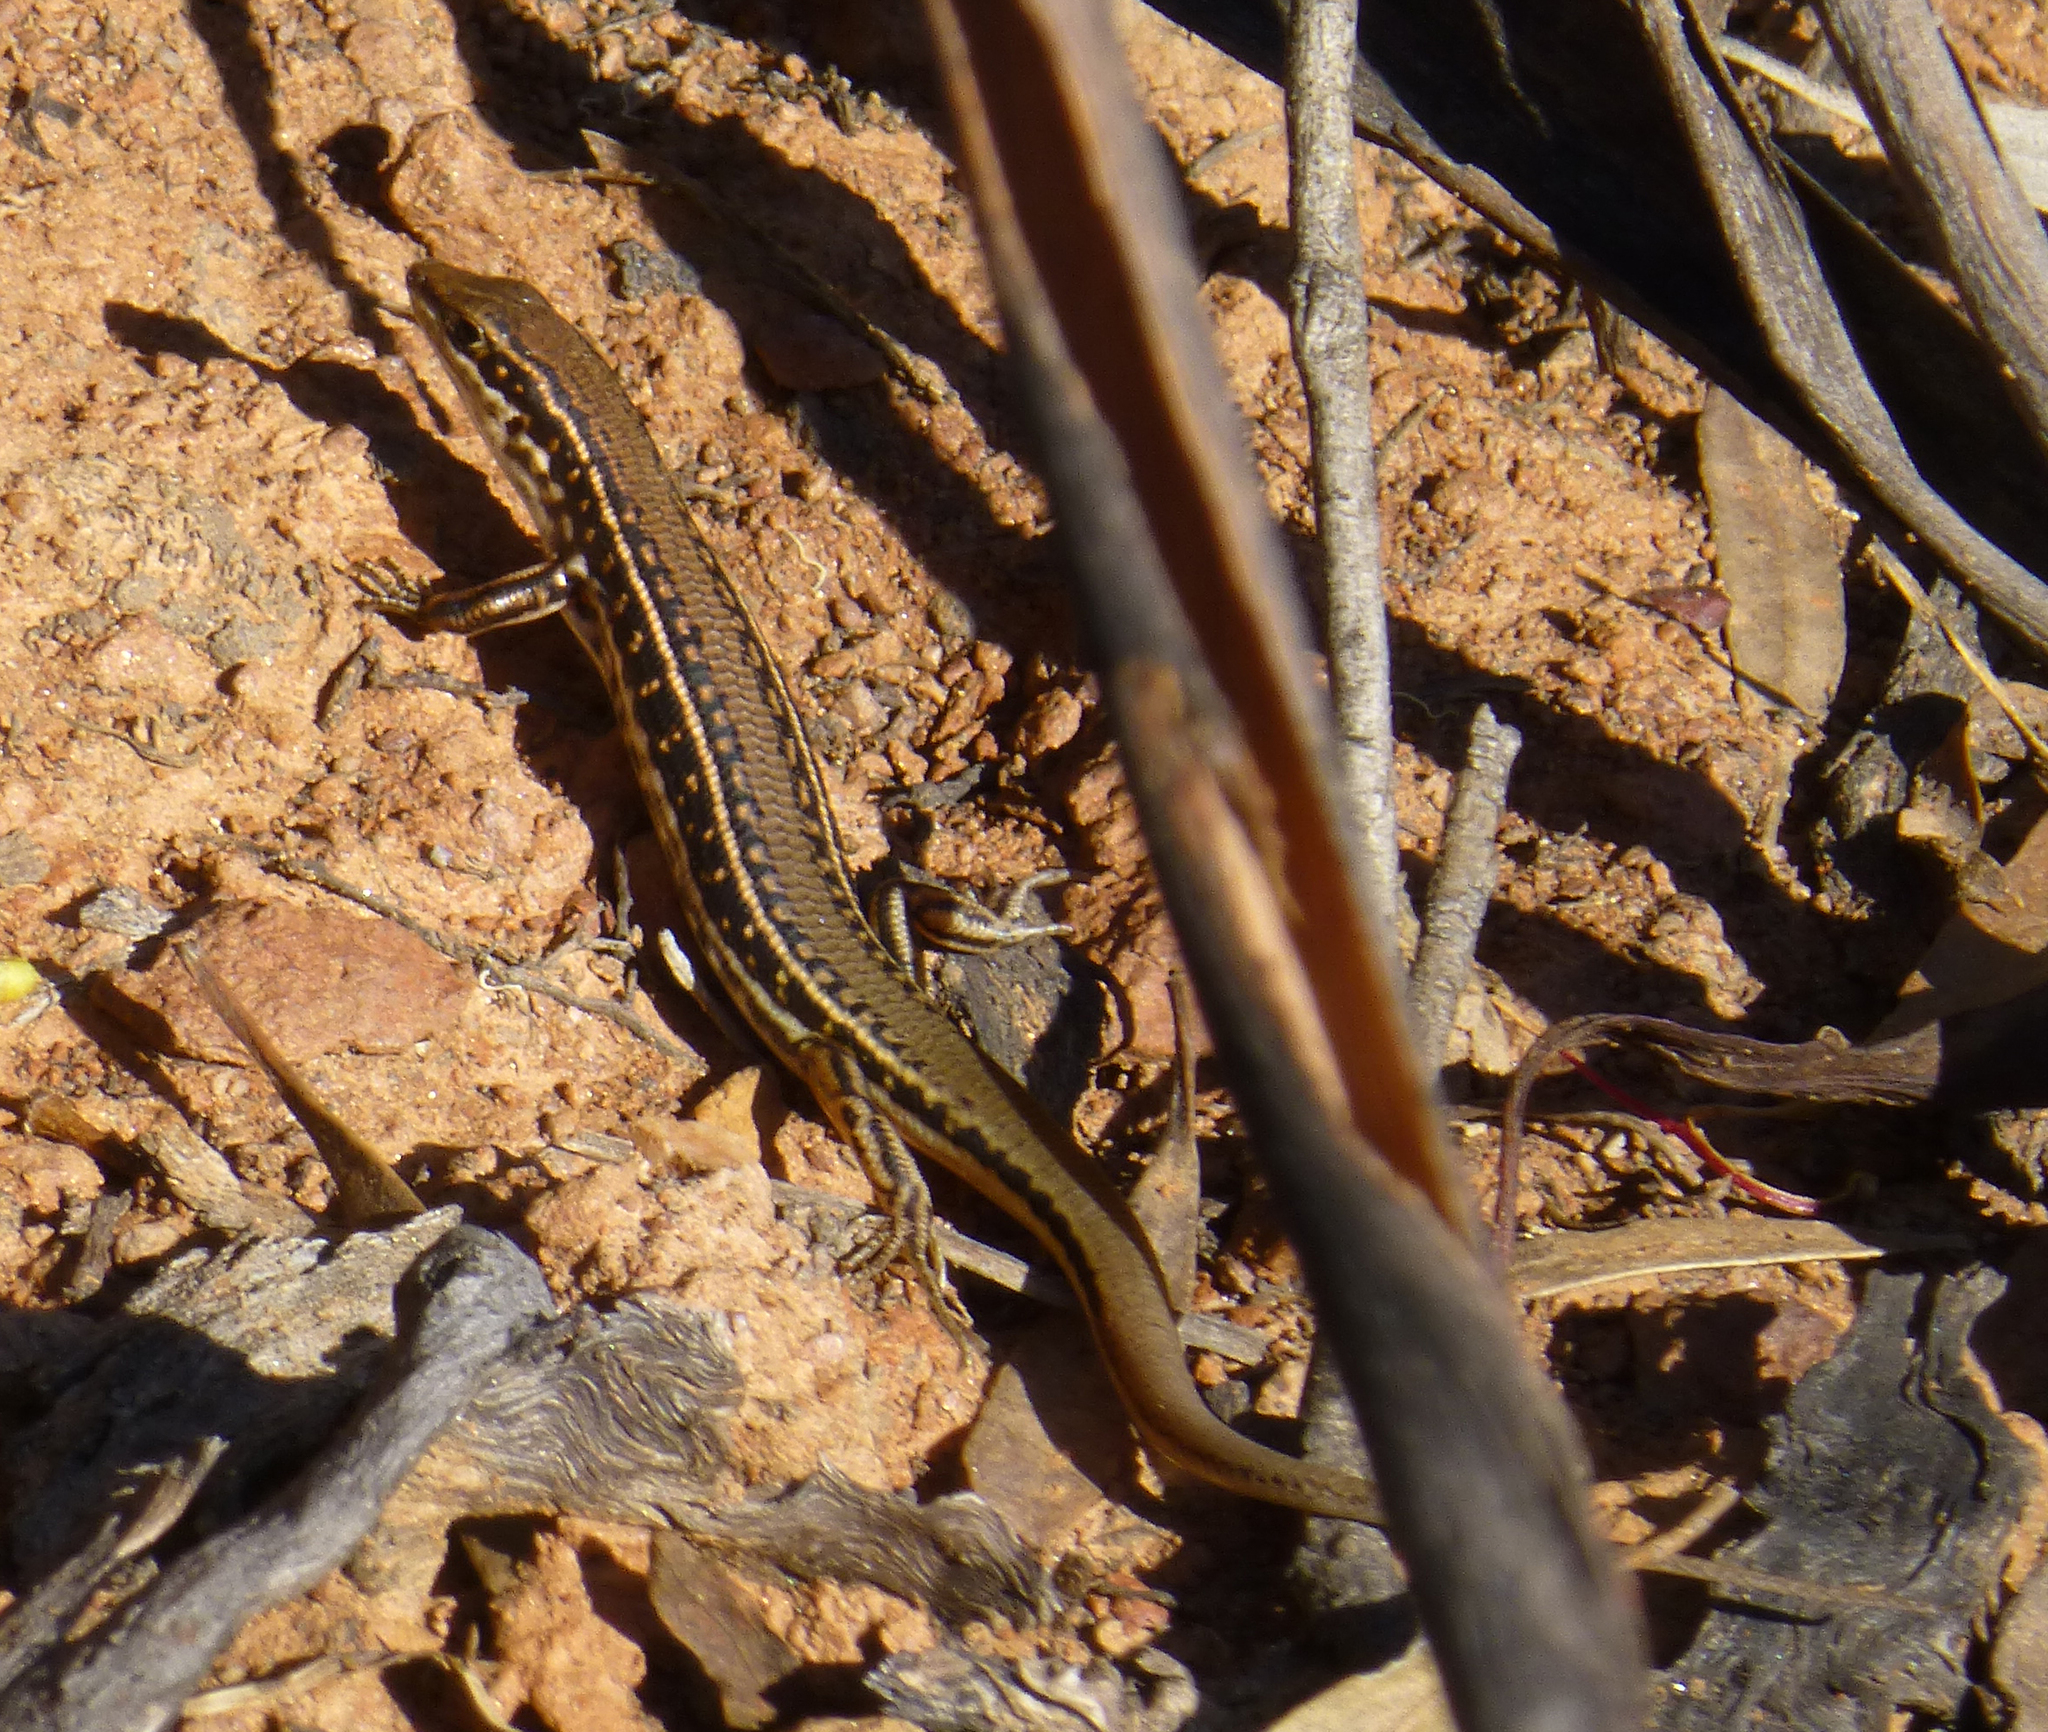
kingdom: Animalia
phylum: Chordata
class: Squamata
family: Scincidae
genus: Ctenotus
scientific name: Ctenotus allotropis
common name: Brown-blazed wedgesnout ctenotus
